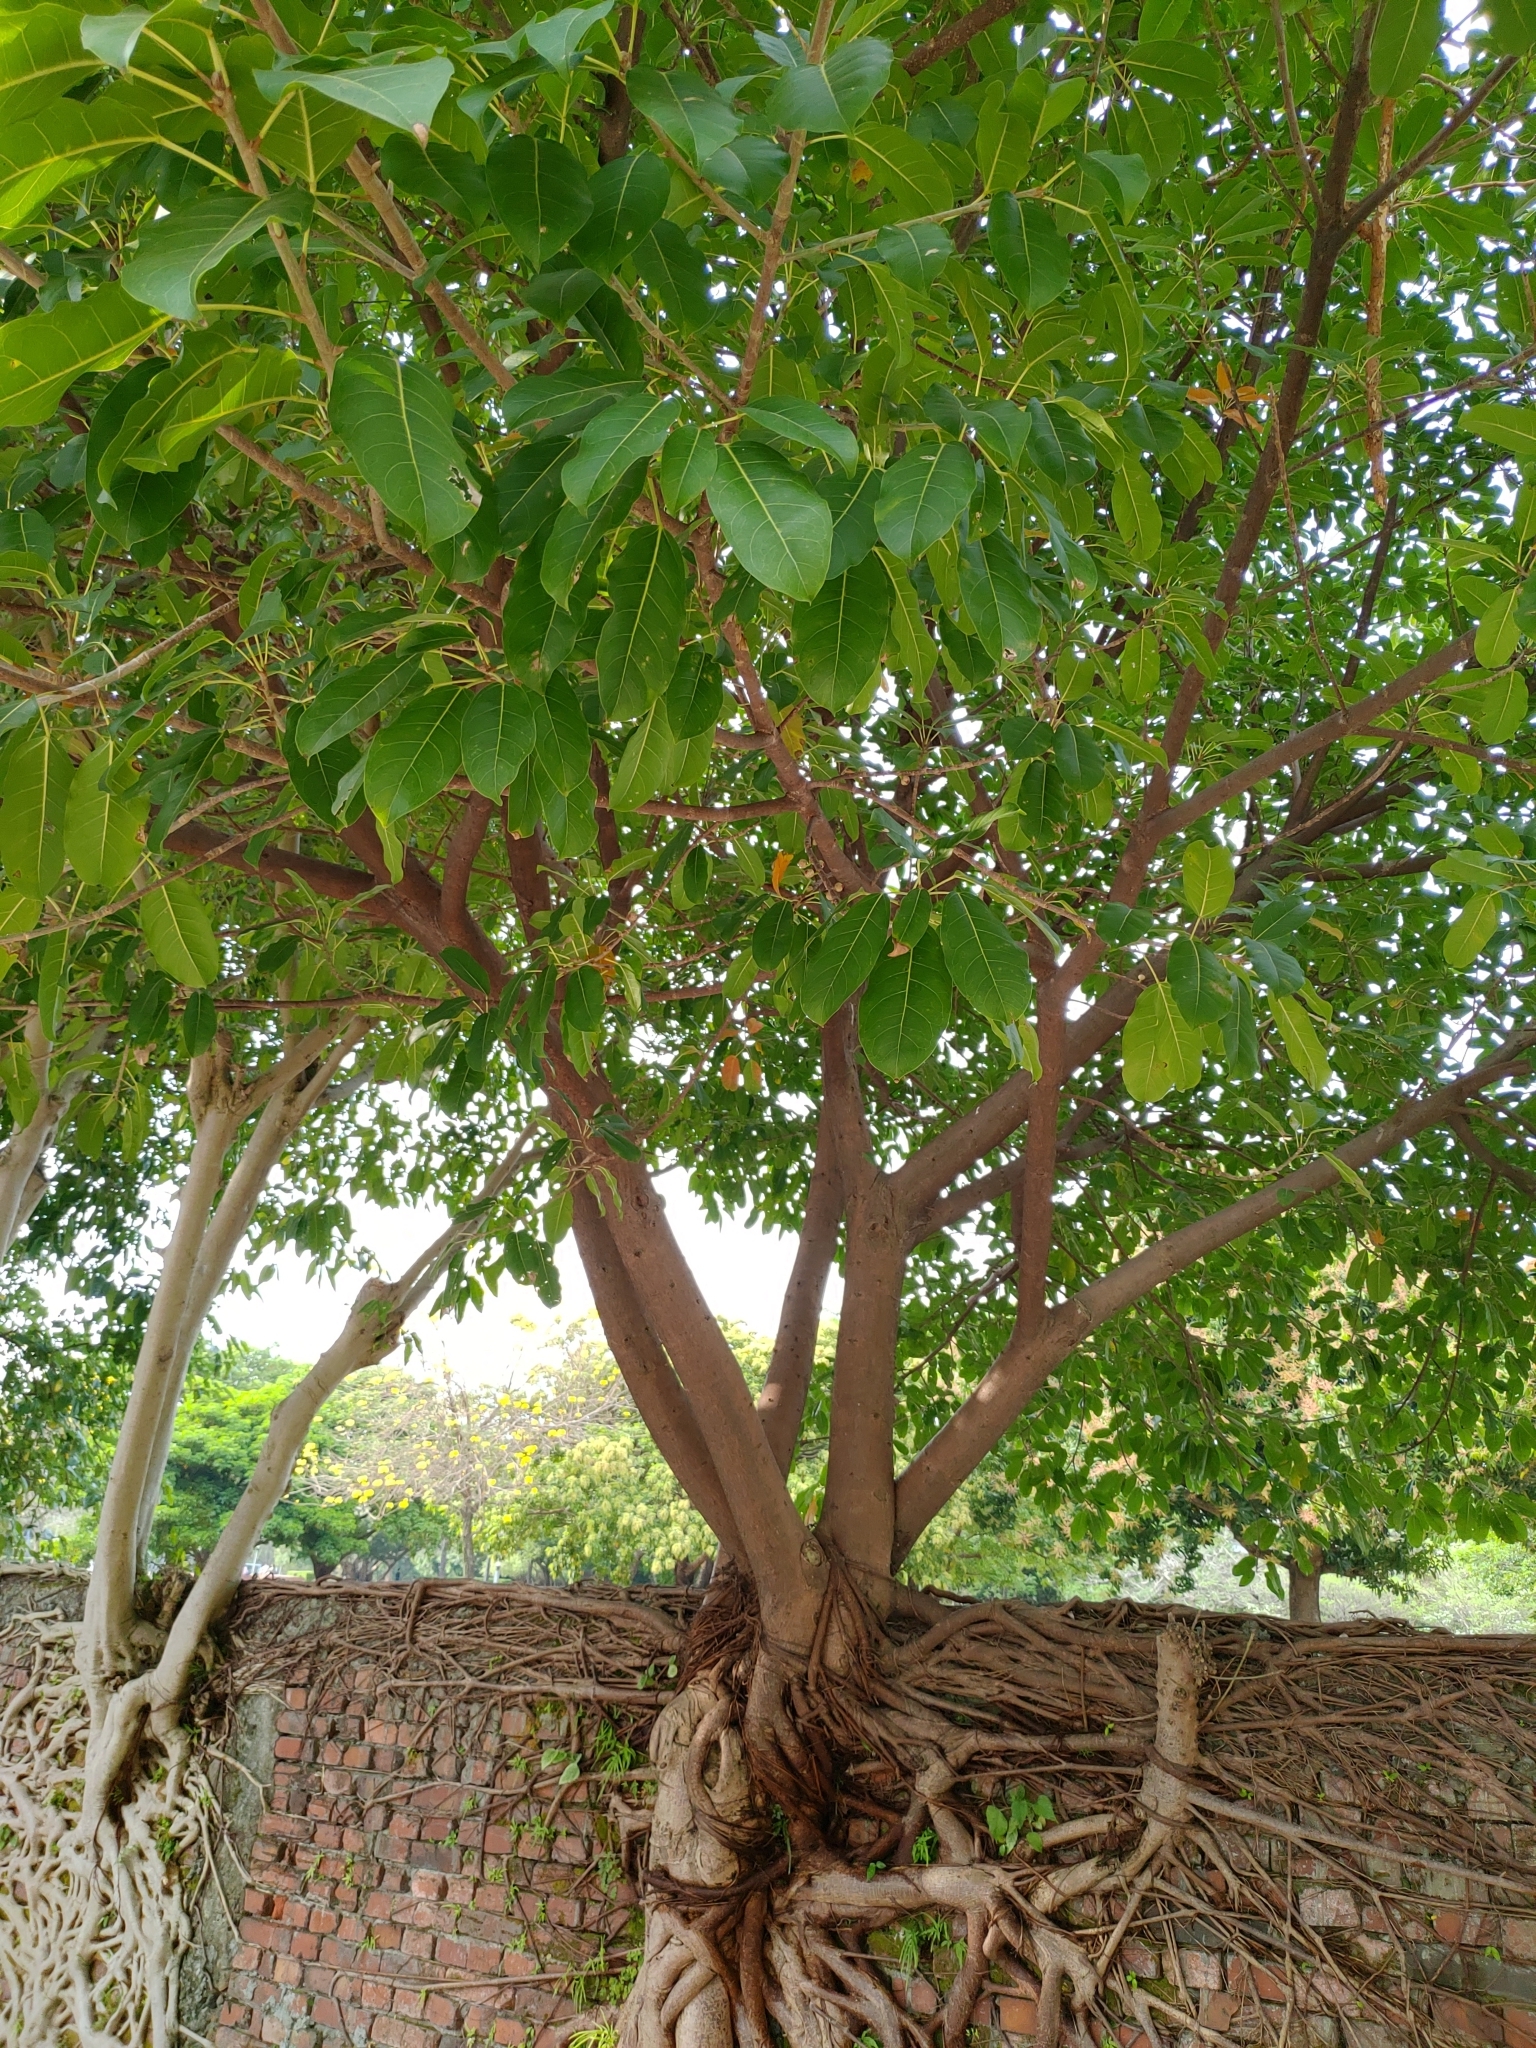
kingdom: Plantae
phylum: Tracheophyta
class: Magnoliopsida
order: Rosales
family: Moraceae
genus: Ficus
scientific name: Ficus subpisocarpa
